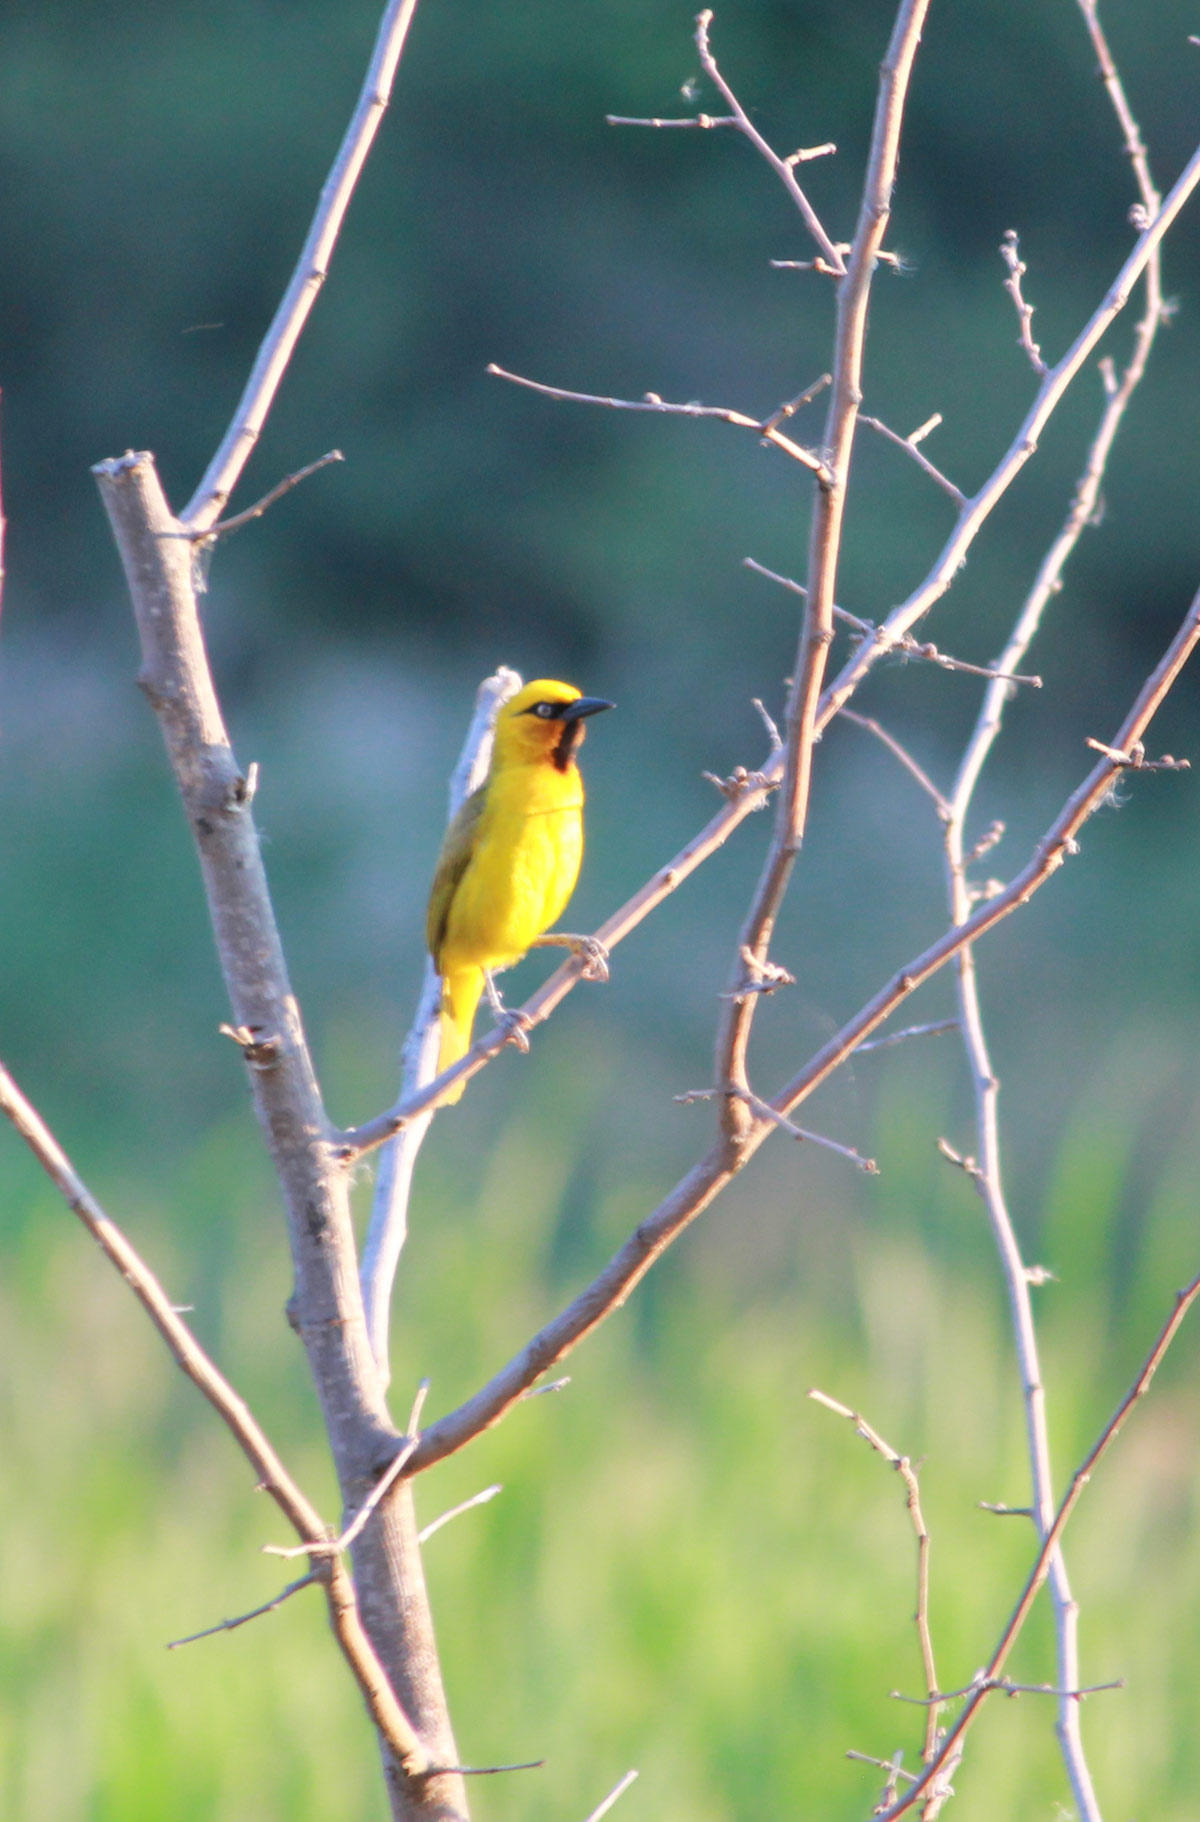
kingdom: Animalia
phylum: Chordata
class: Aves
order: Passeriformes
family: Ploceidae
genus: Ploceus
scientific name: Ploceus ocularis
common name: Spectacled weaver
